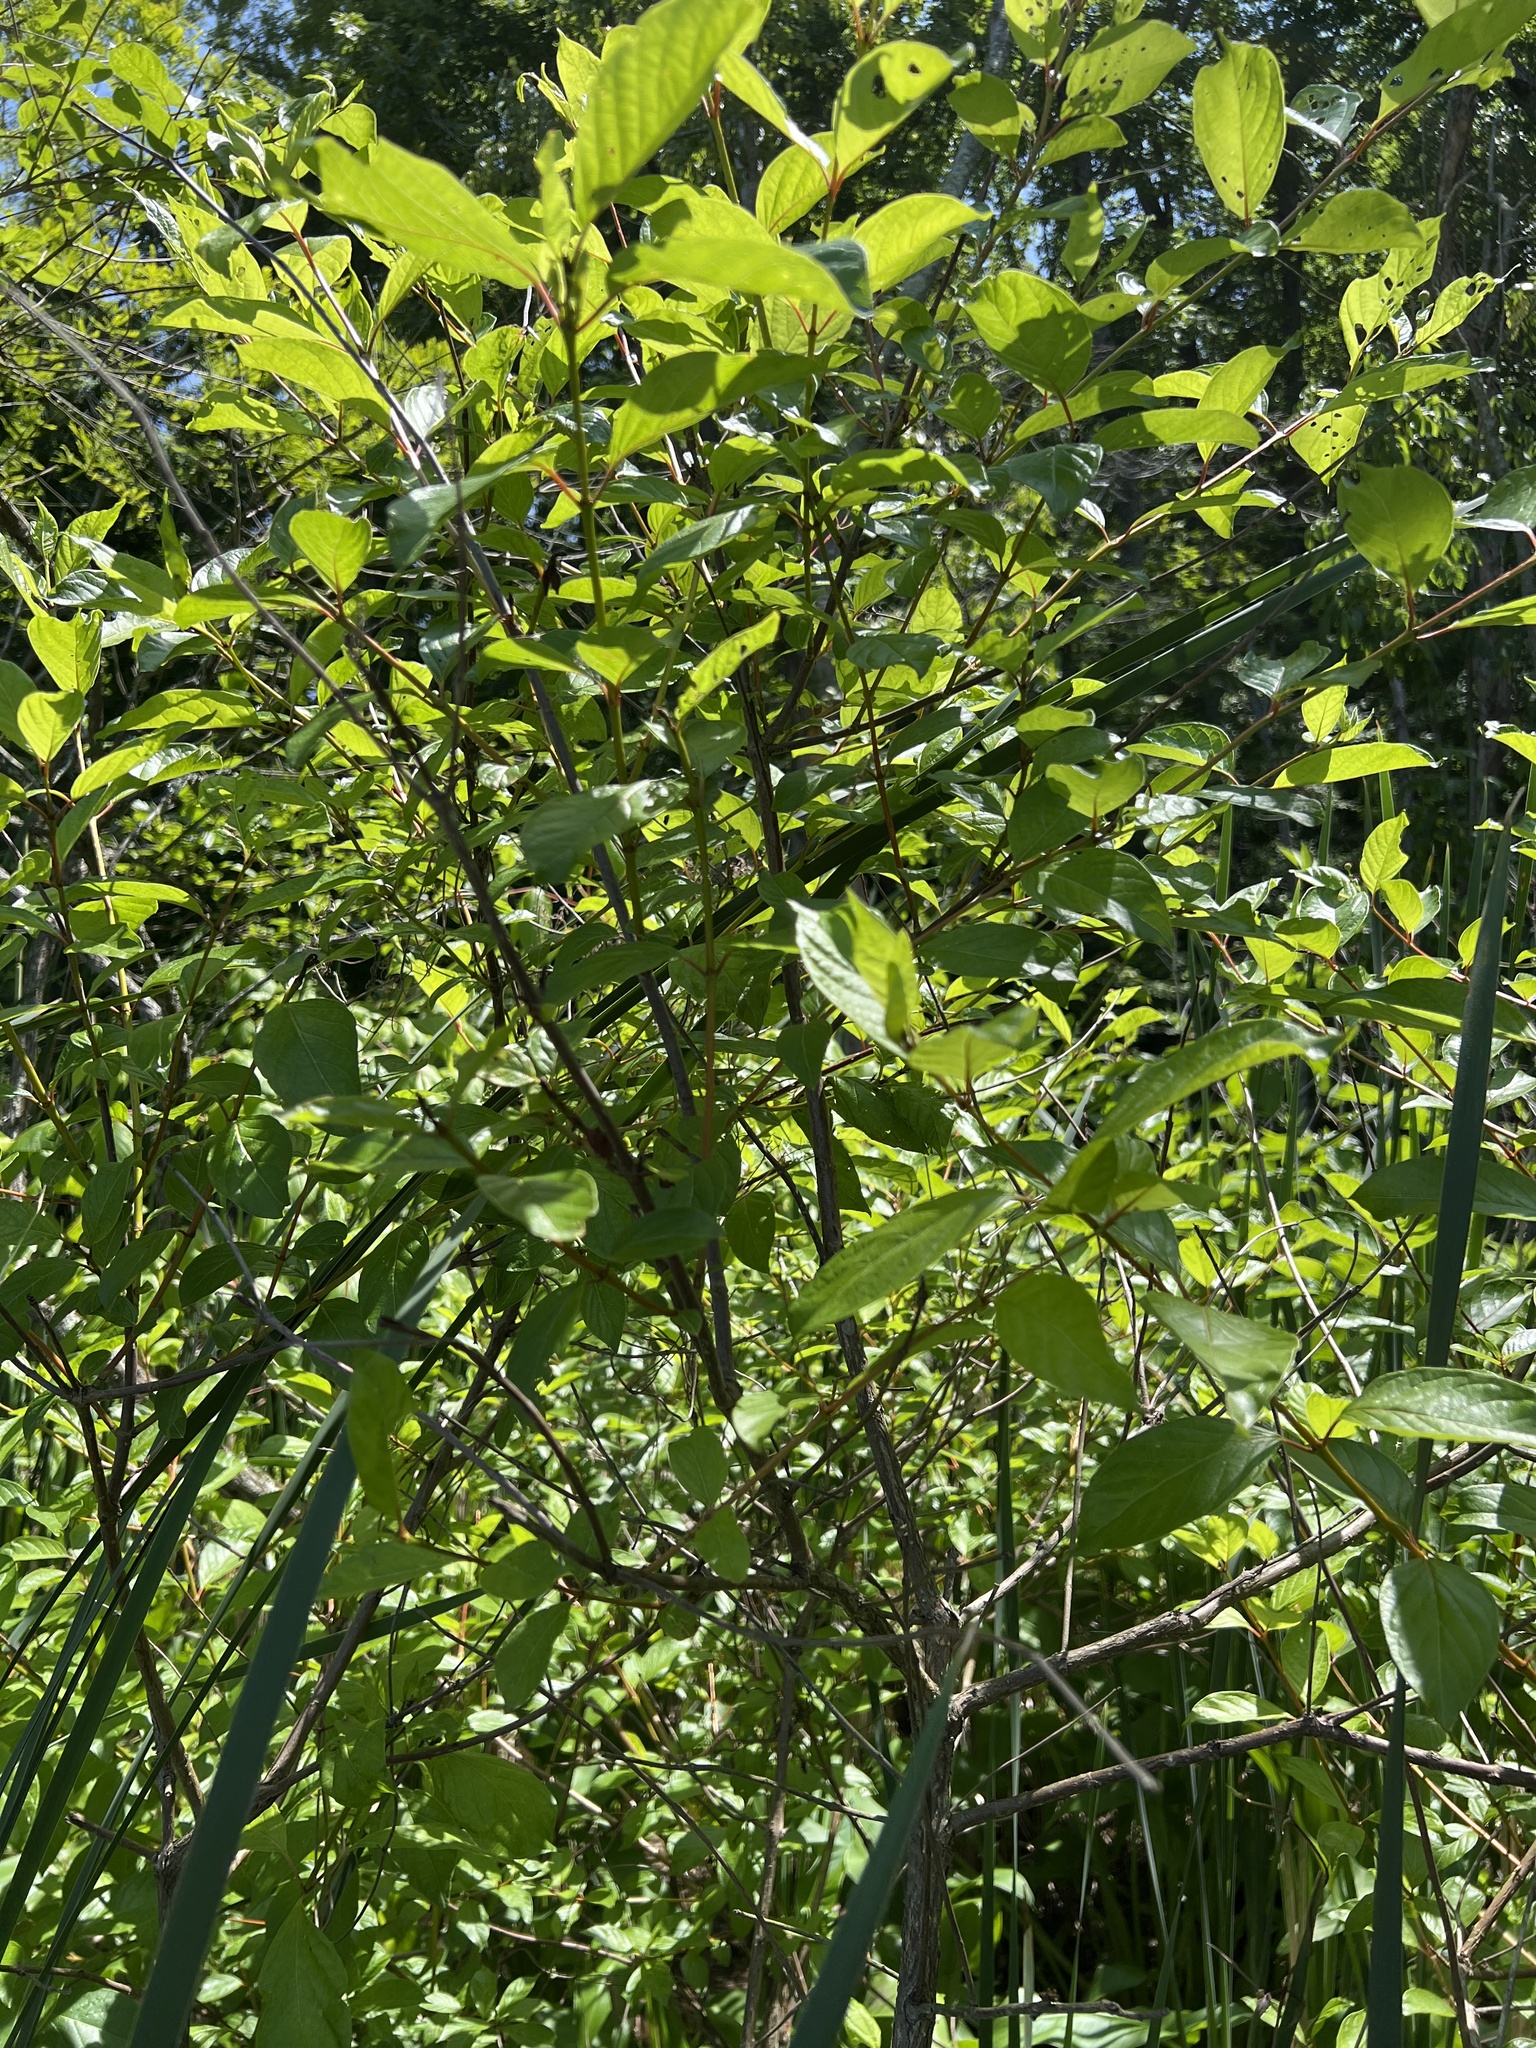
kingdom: Plantae
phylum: Tracheophyta
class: Magnoliopsida
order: Gentianales
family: Rubiaceae
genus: Cephalanthus
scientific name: Cephalanthus occidentalis
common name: Button-willow
